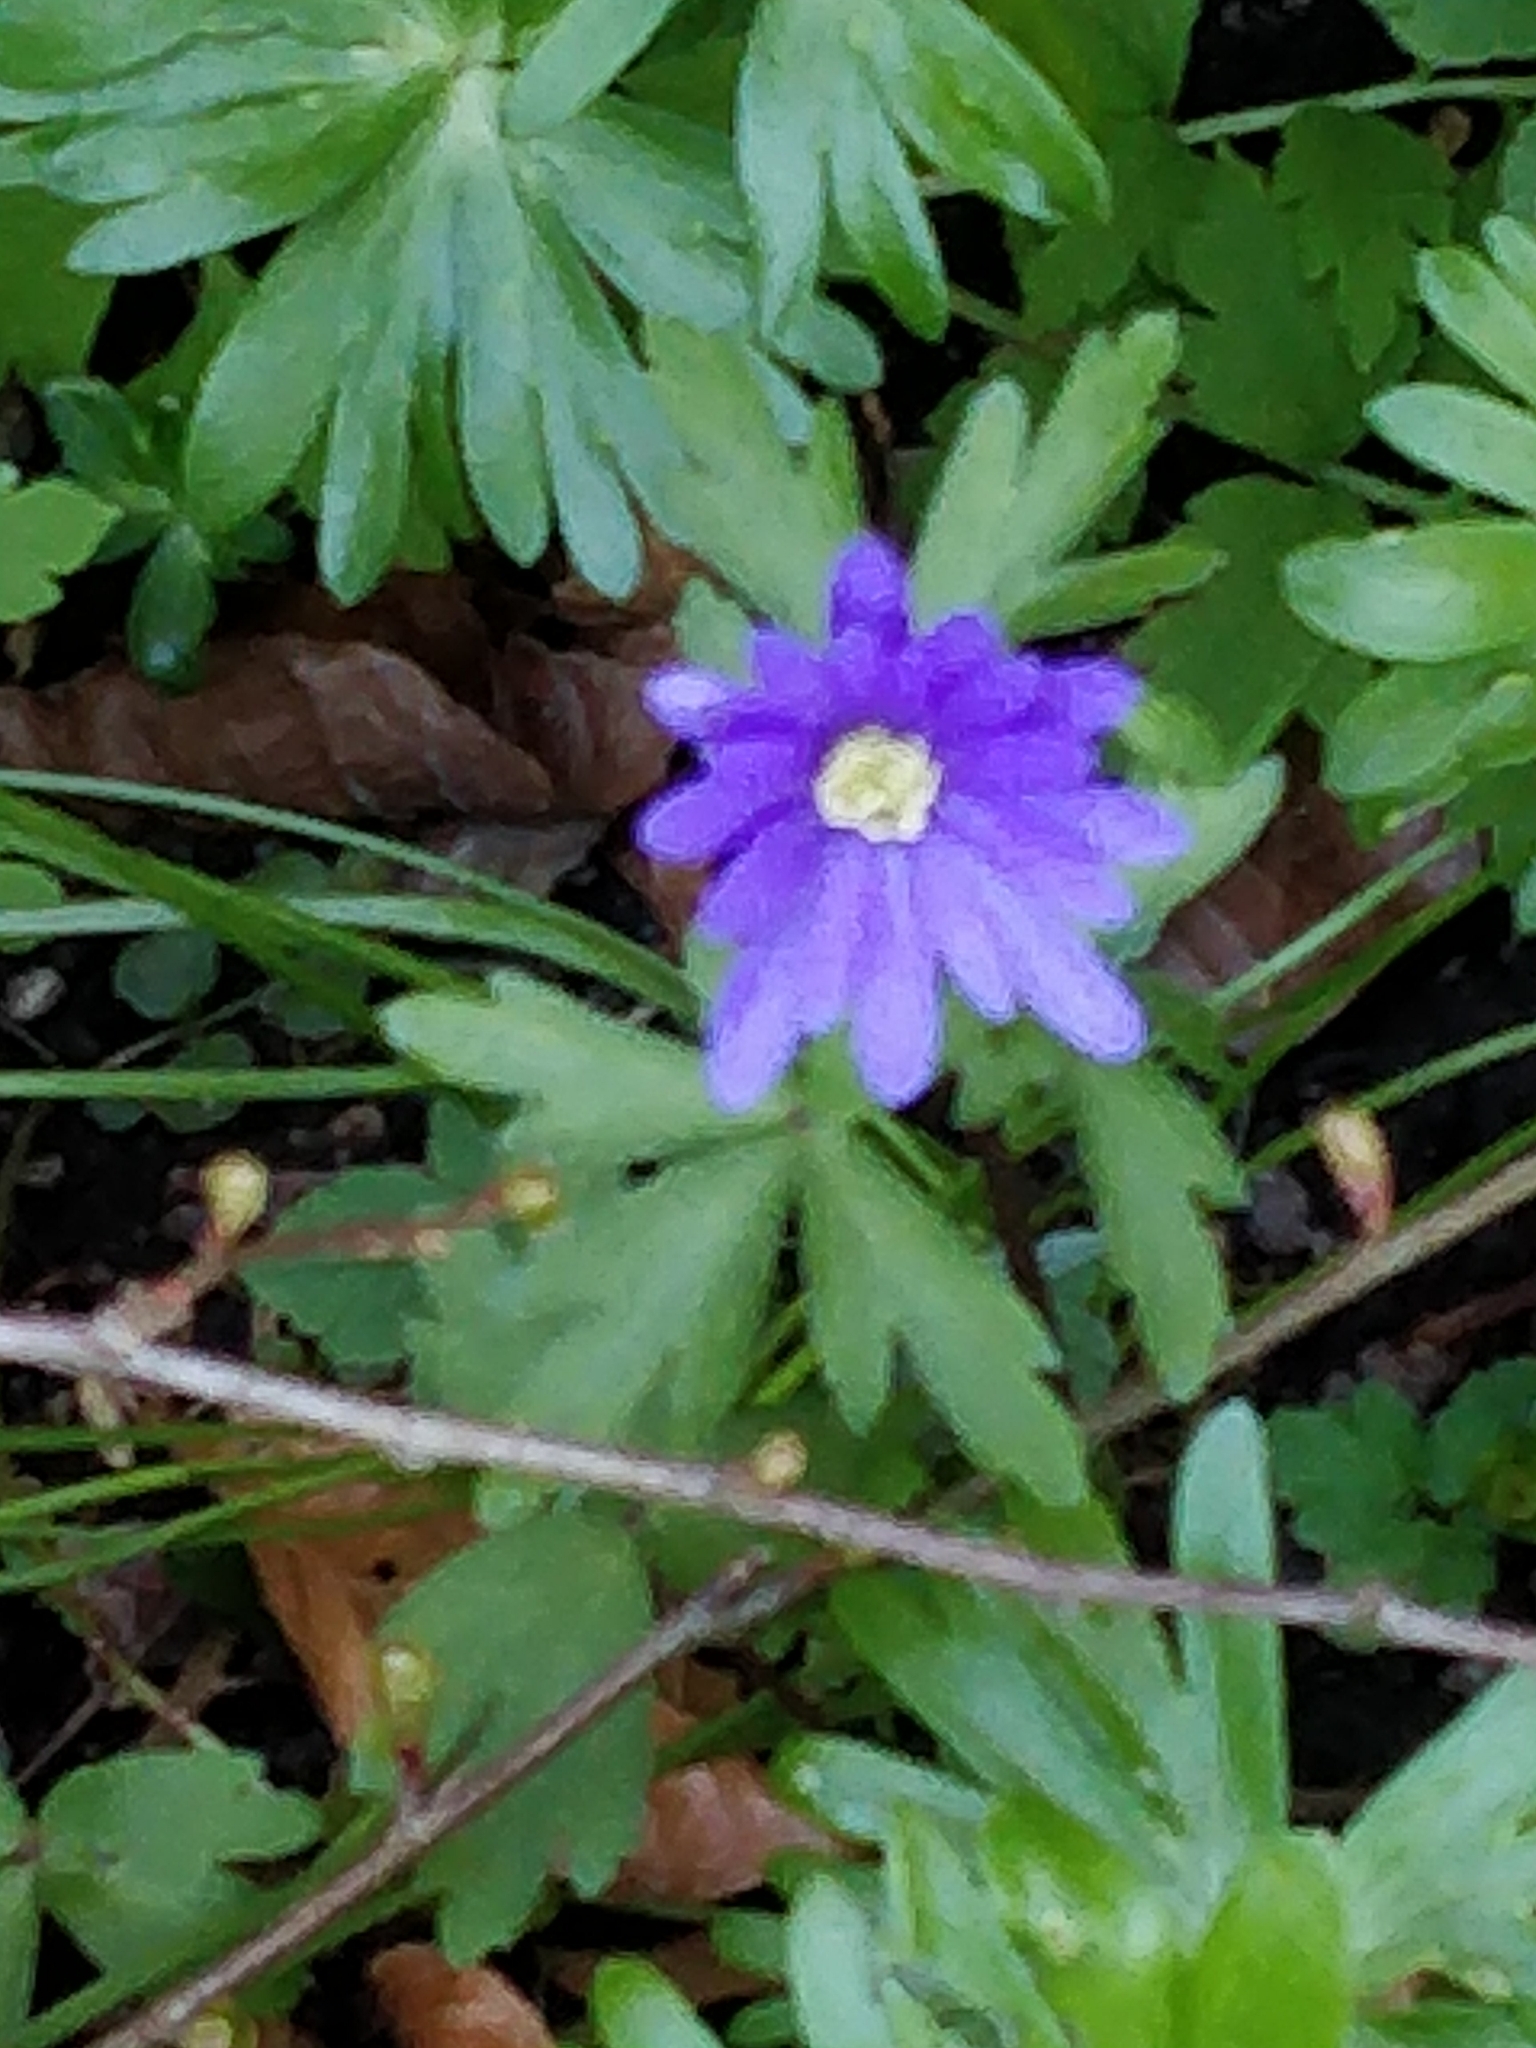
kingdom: Plantae
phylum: Tracheophyta
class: Magnoliopsida
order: Ranunculales
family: Ranunculaceae
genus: Anemone
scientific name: Anemone blanda
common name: Balkan anemone
